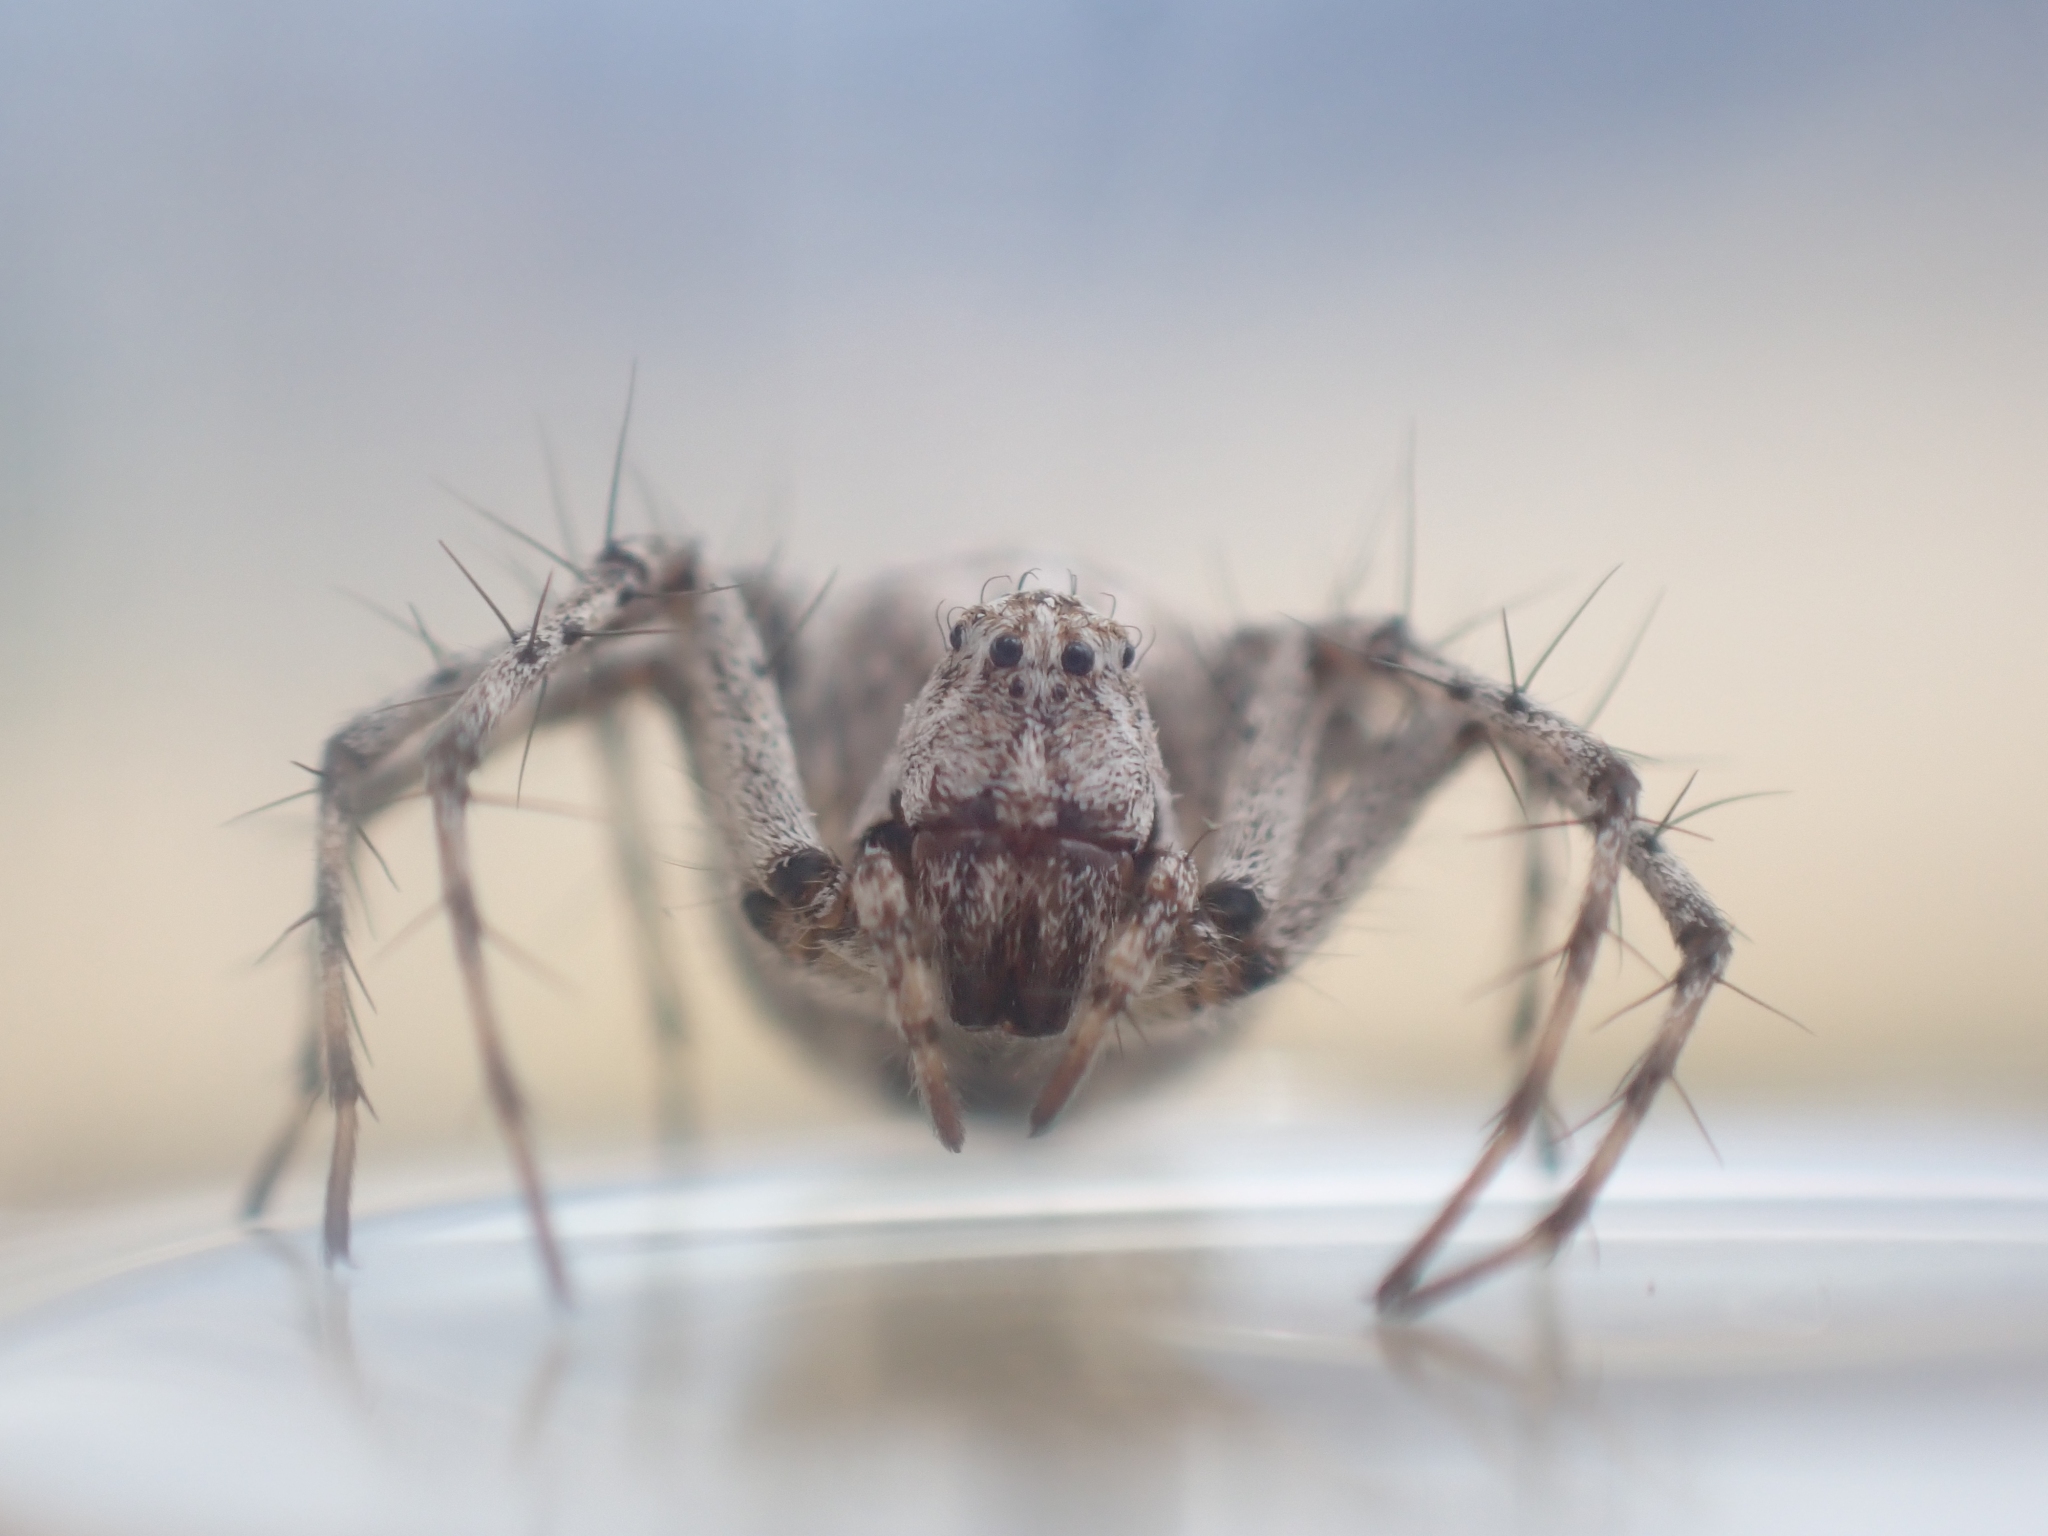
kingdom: Animalia
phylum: Arthropoda
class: Arachnida
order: Araneae
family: Oxyopidae
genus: Oxyopes
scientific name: Oxyopes scalaris
